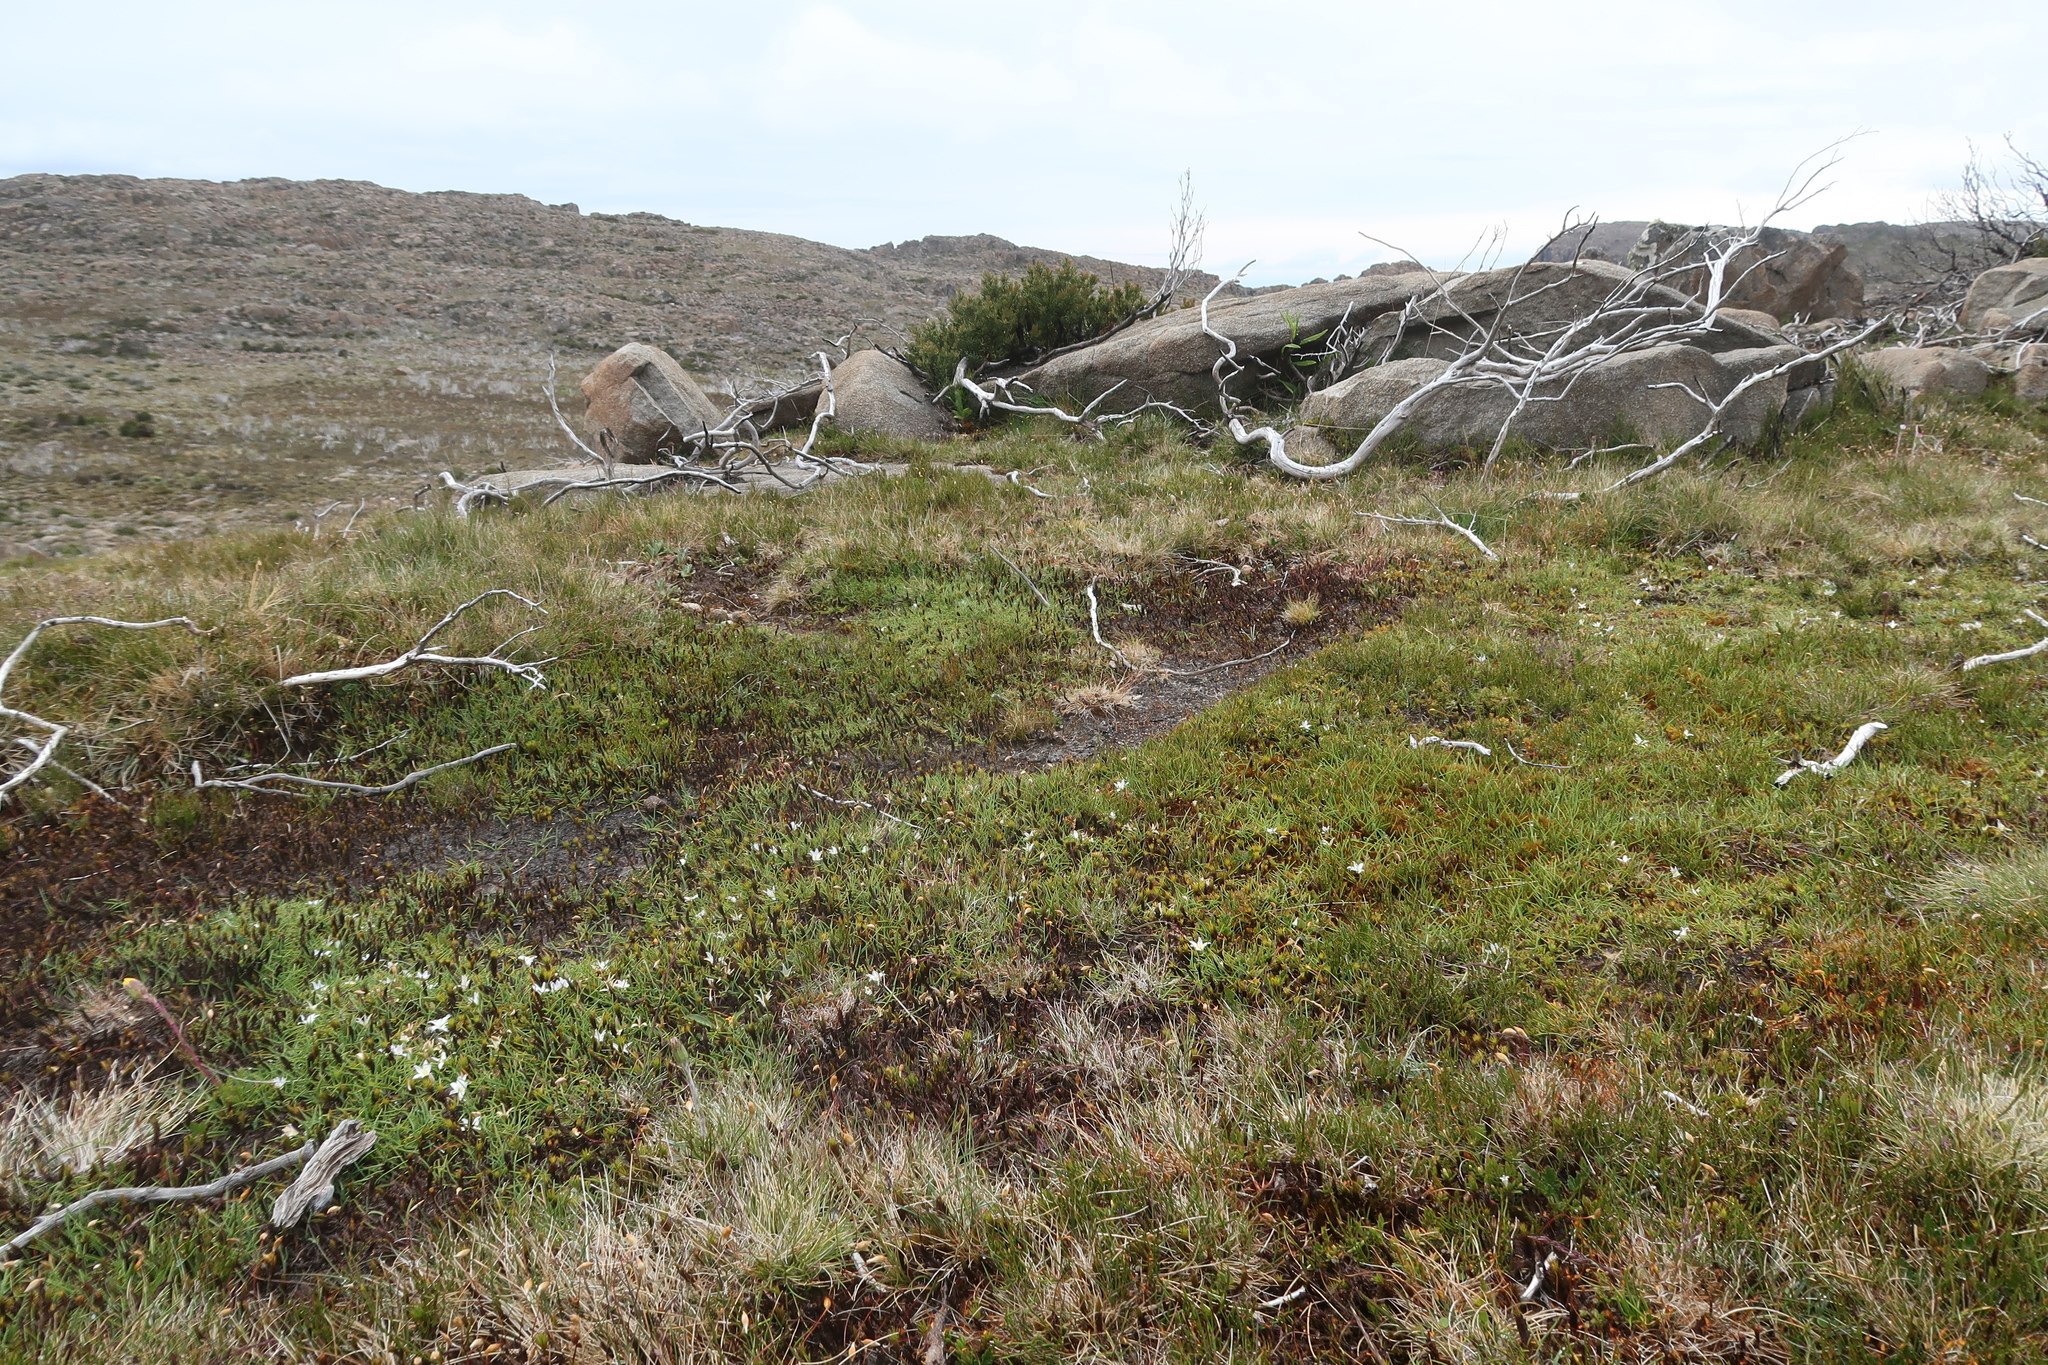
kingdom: Plantae
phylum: Tracheophyta
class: Liliopsida
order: Asparagales
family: Asphodelaceae
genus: Herpolirion
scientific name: Herpolirion novae-zelandiae
